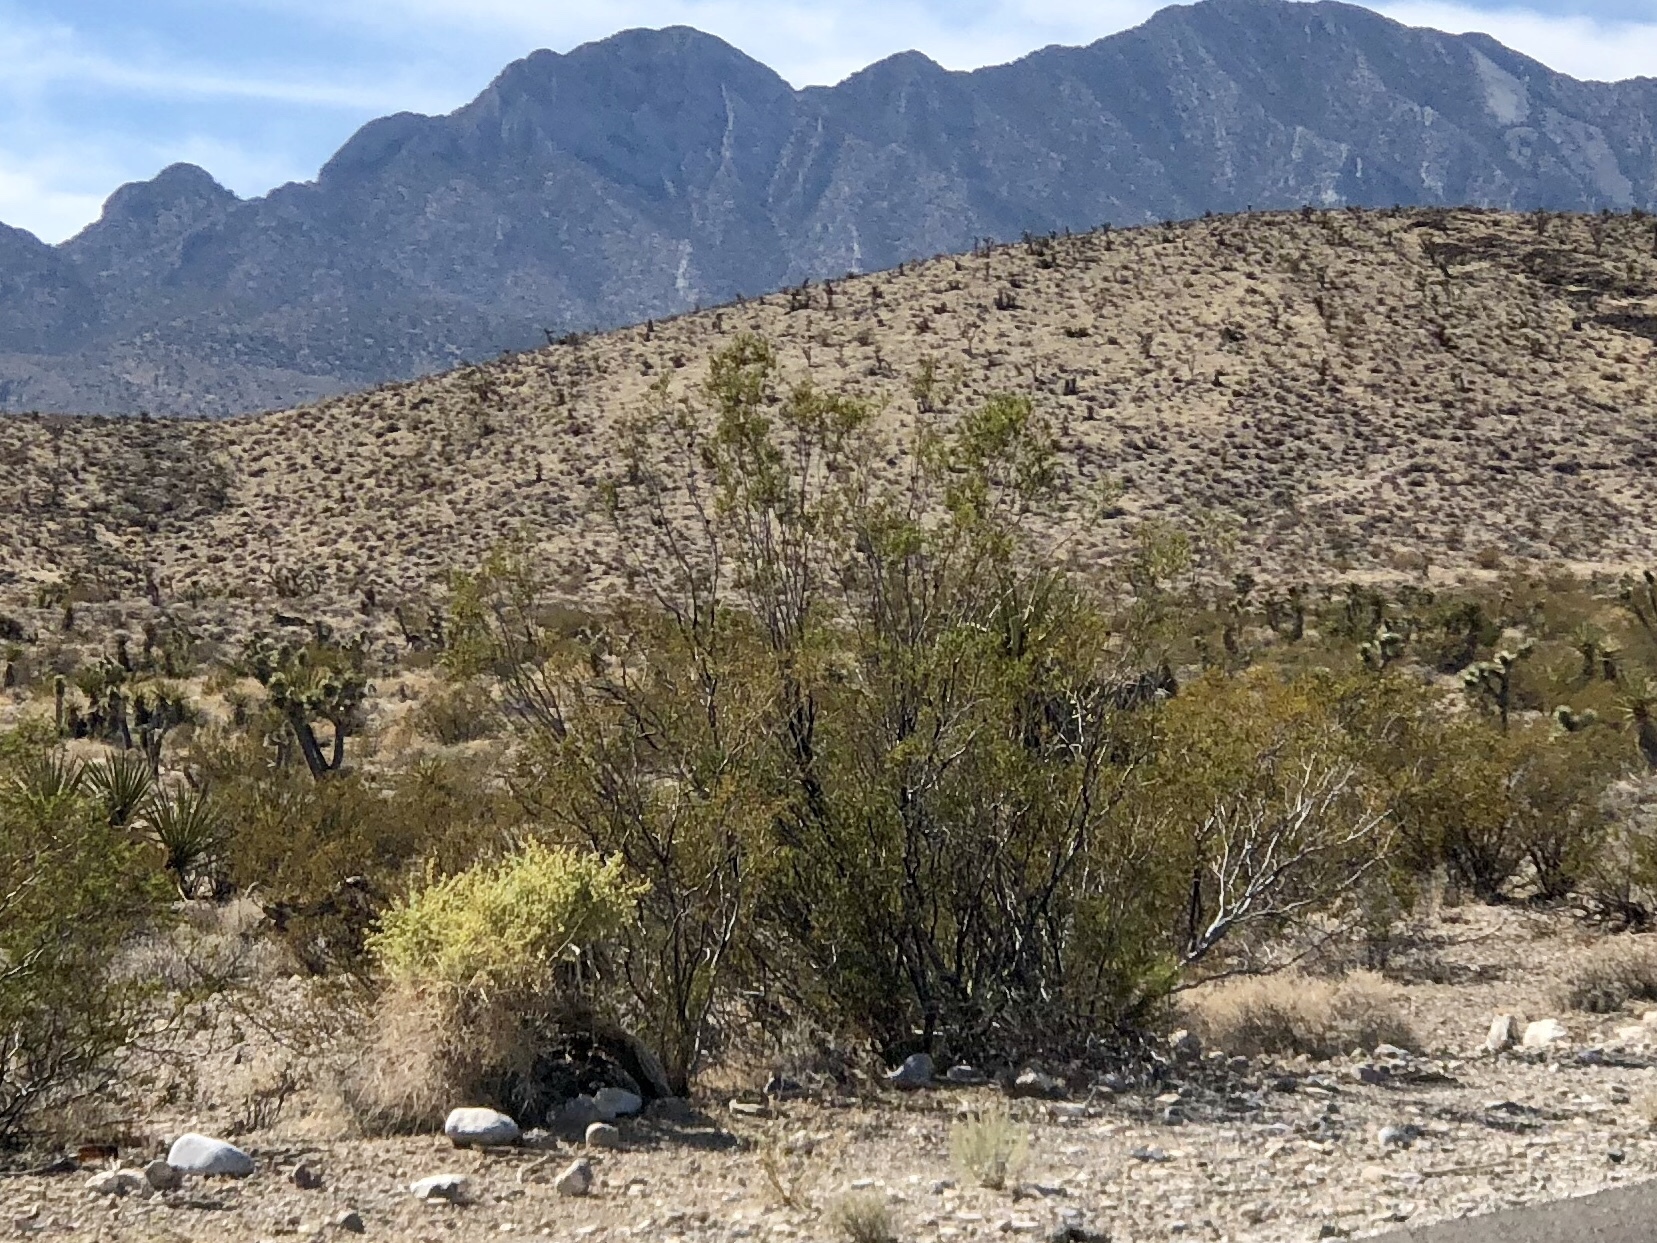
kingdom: Plantae
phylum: Tracheophyta
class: Magnoliopsida
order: Zygophyllales
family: Zygophyllaceae
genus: Larrea
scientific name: Larrea tridentata
